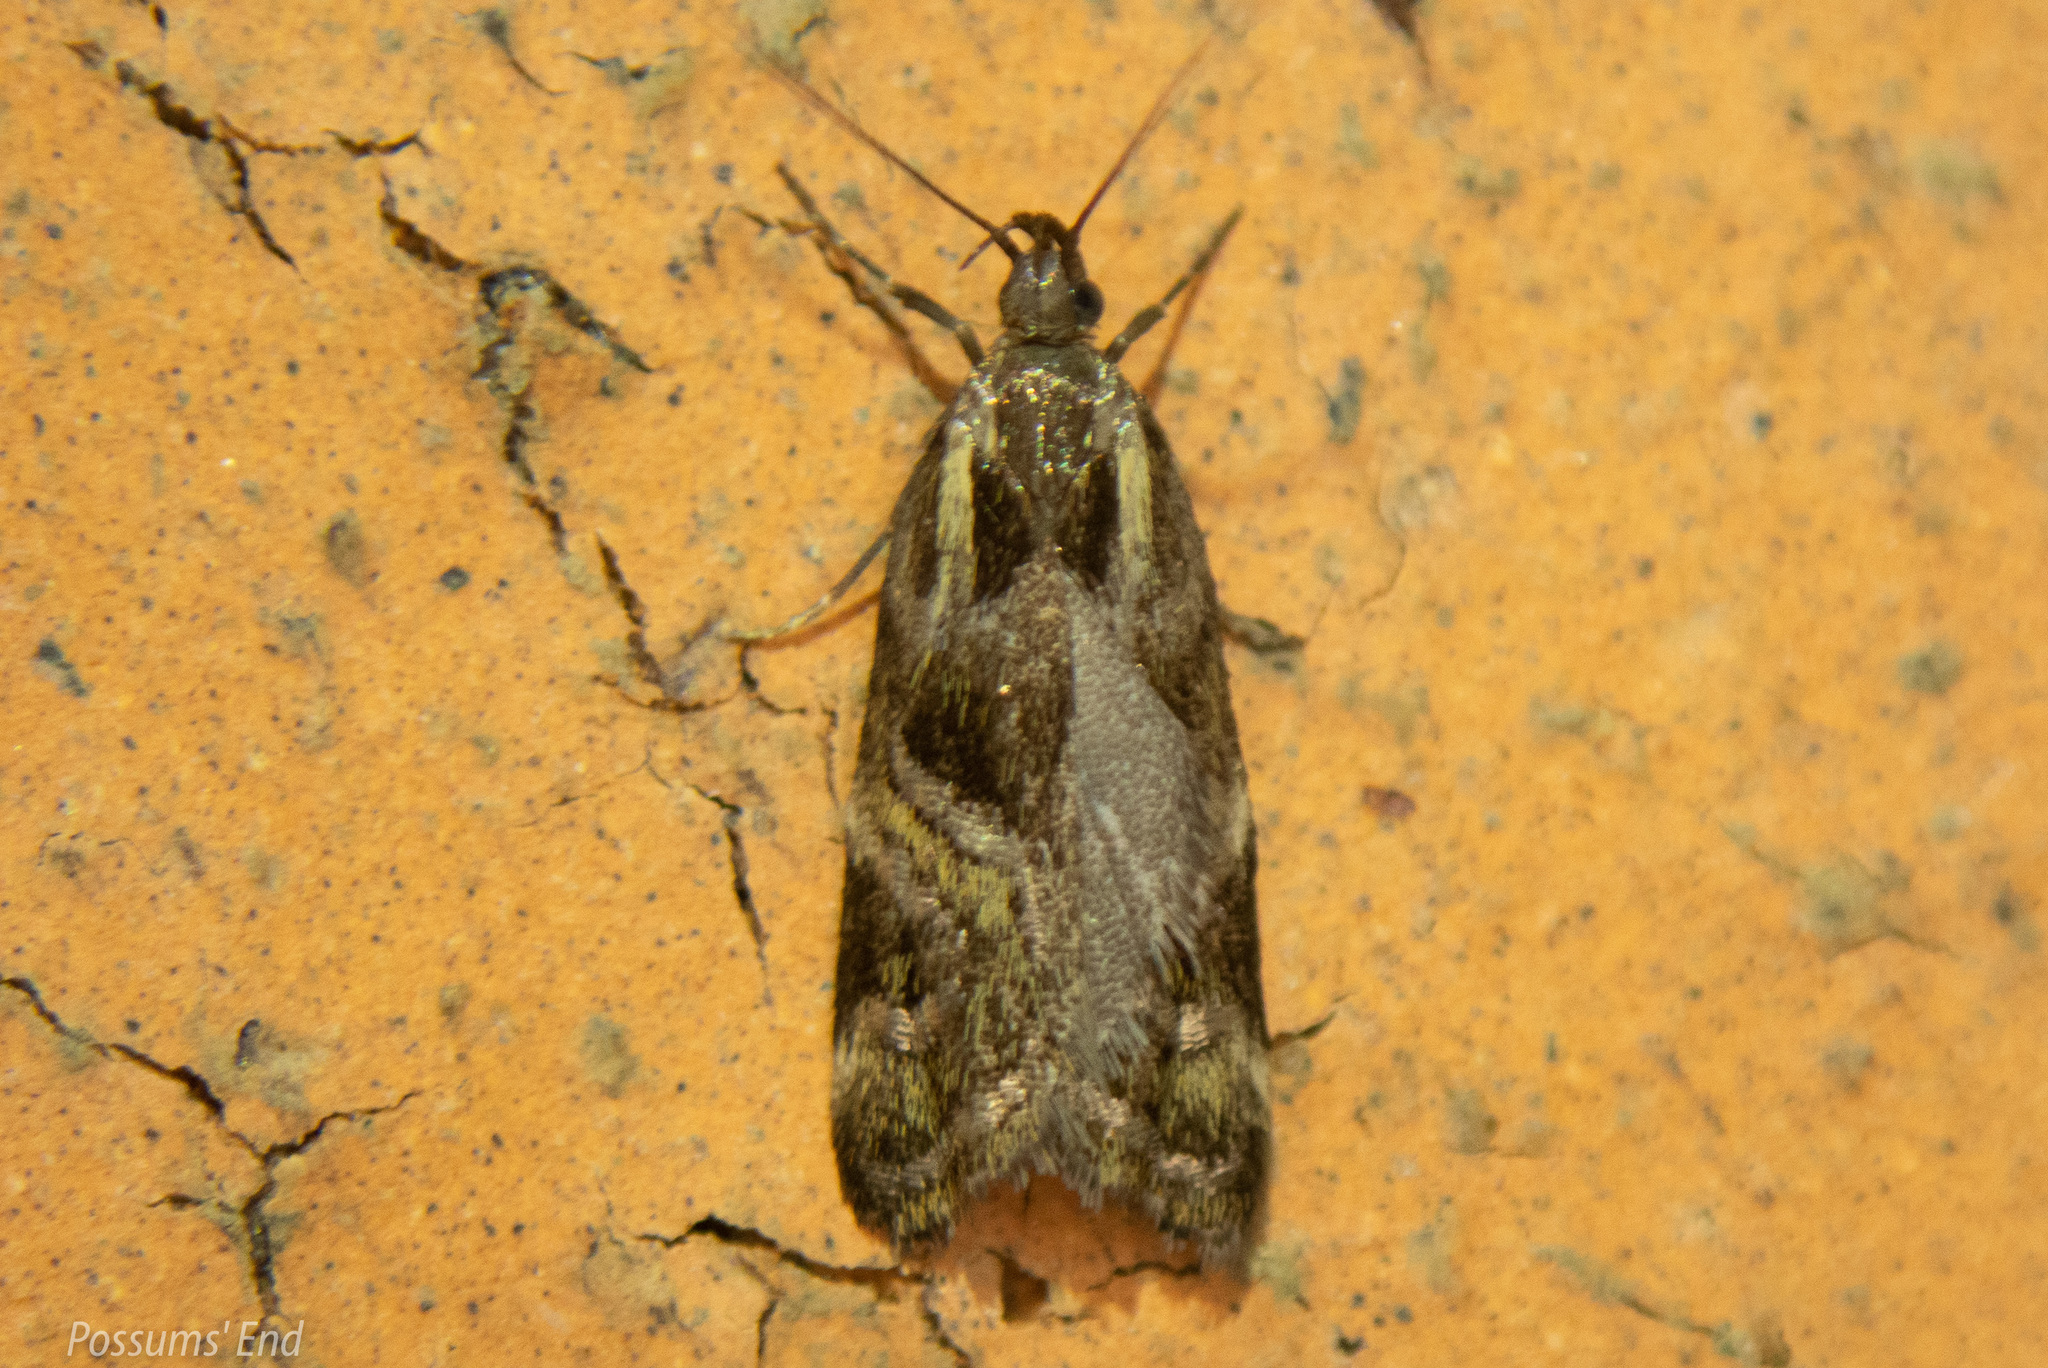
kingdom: Animalia
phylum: Arthropoda
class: Insecta
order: Lepidoptera
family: Oecophoridae
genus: Hierodoris
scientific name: Hierodoris s-fractum
